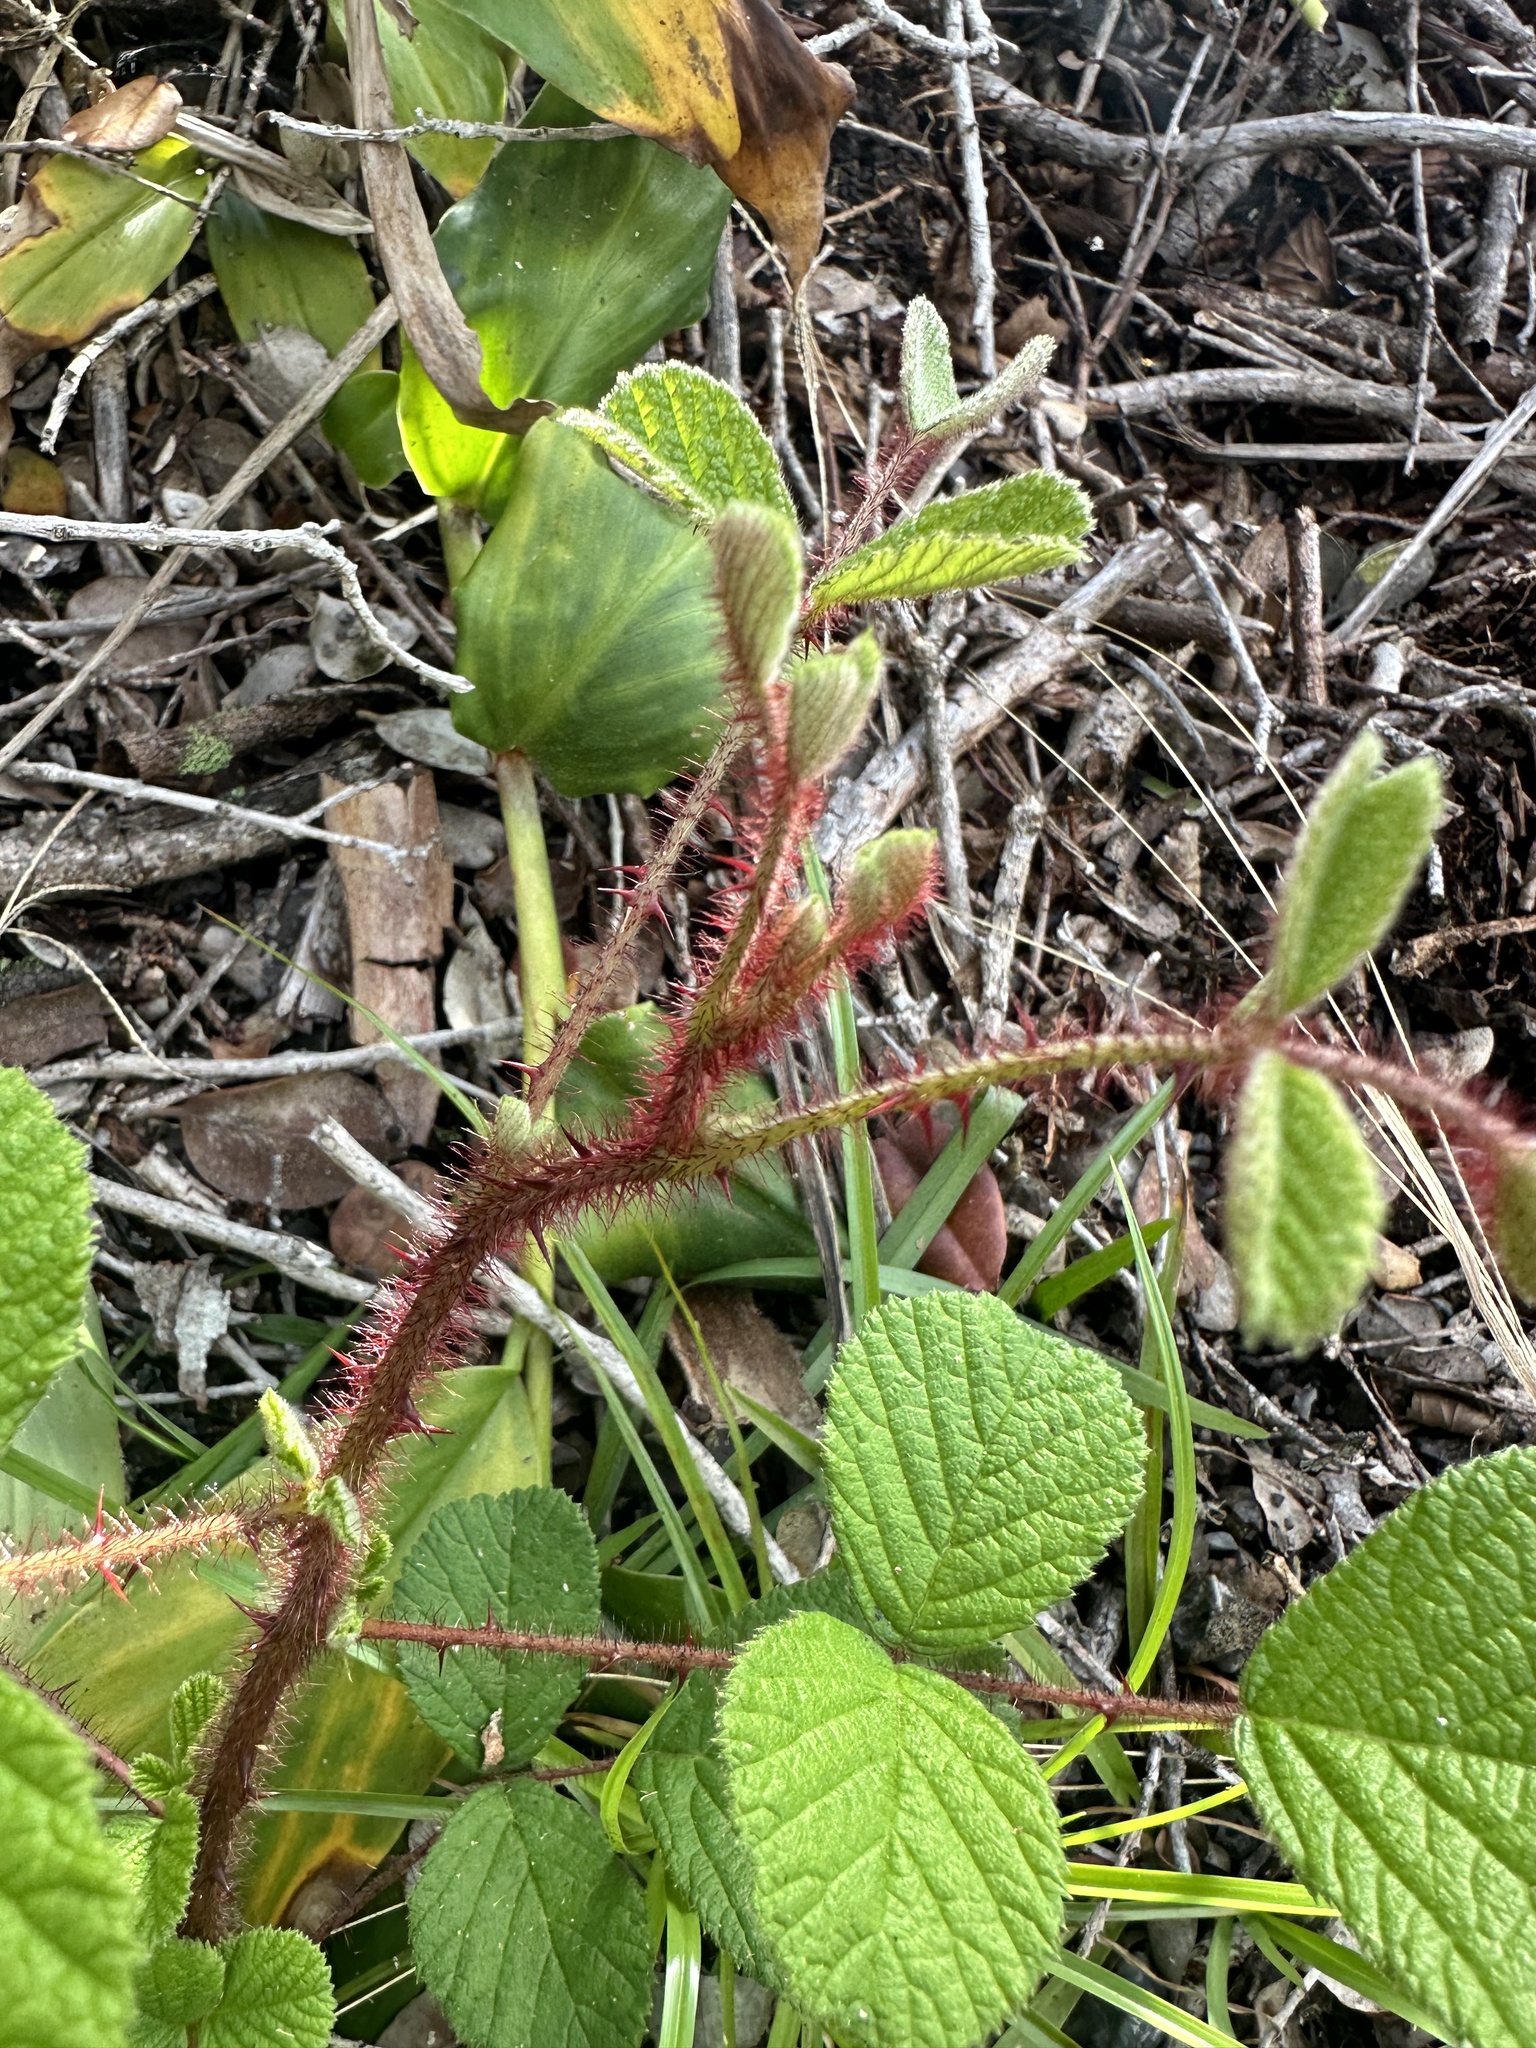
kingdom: Plantae
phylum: Tracheophyta
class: Magnoliopsida
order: Rosales
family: Rosaceae
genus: Rubus
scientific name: Rubus ellipticus
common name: Cheeseberry
